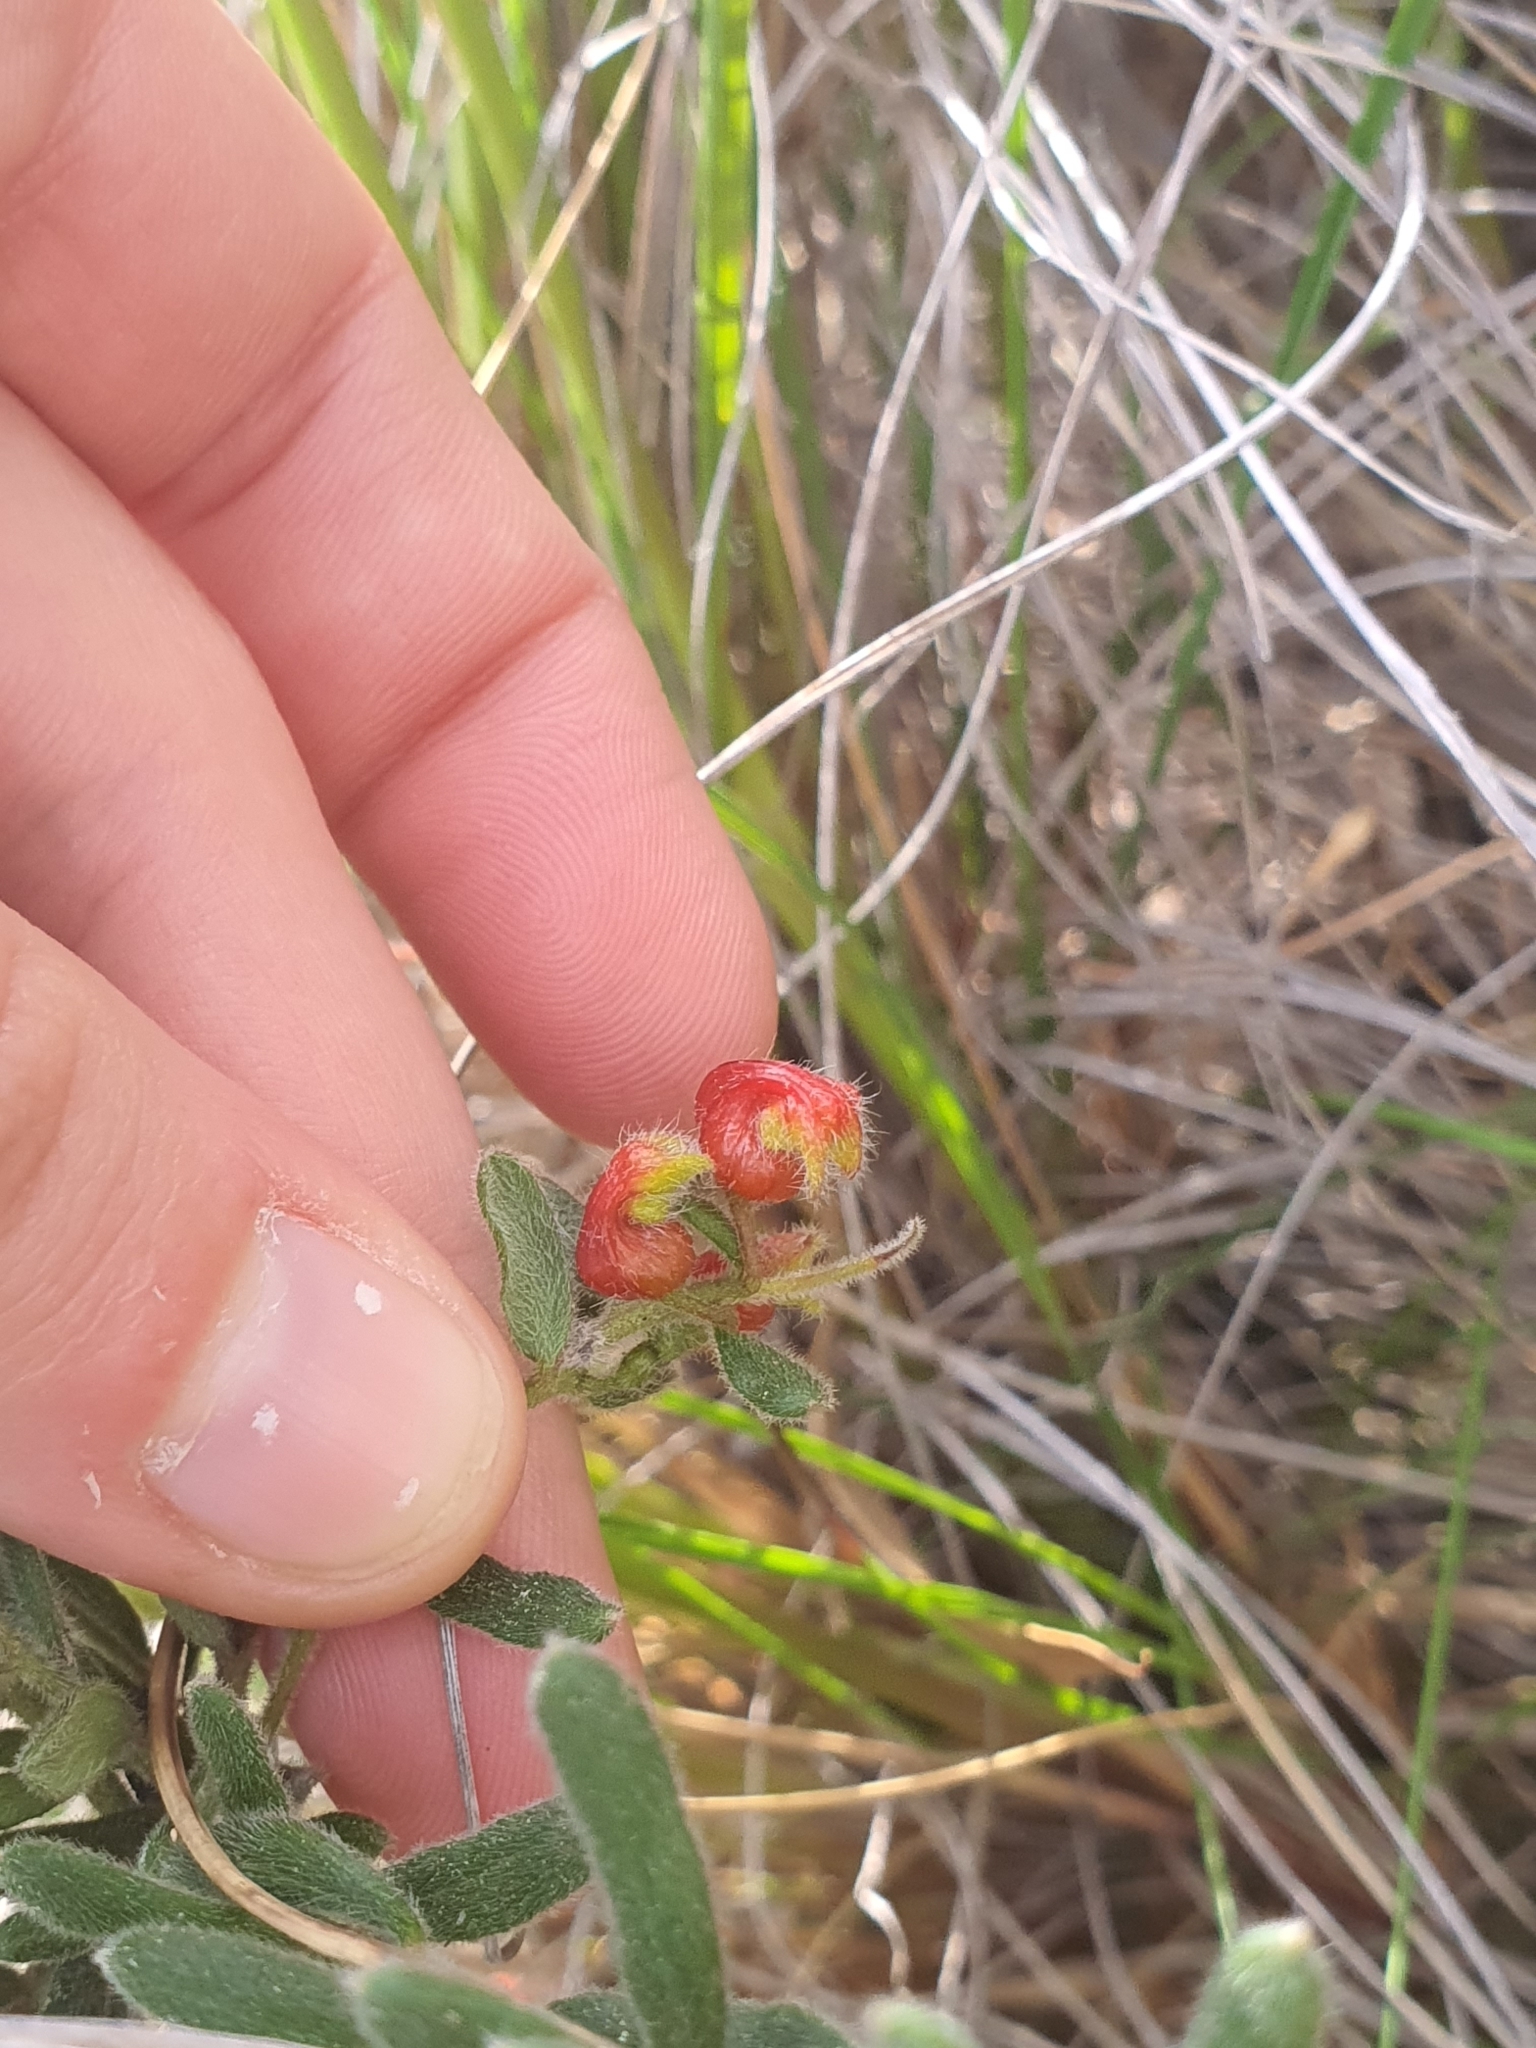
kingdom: Plantae
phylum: Tracheophyta
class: Magnoliopsida
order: Proteales
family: Proteaceae
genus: Grevillea
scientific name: Grevillea alpina
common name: Catclaws grevillea
